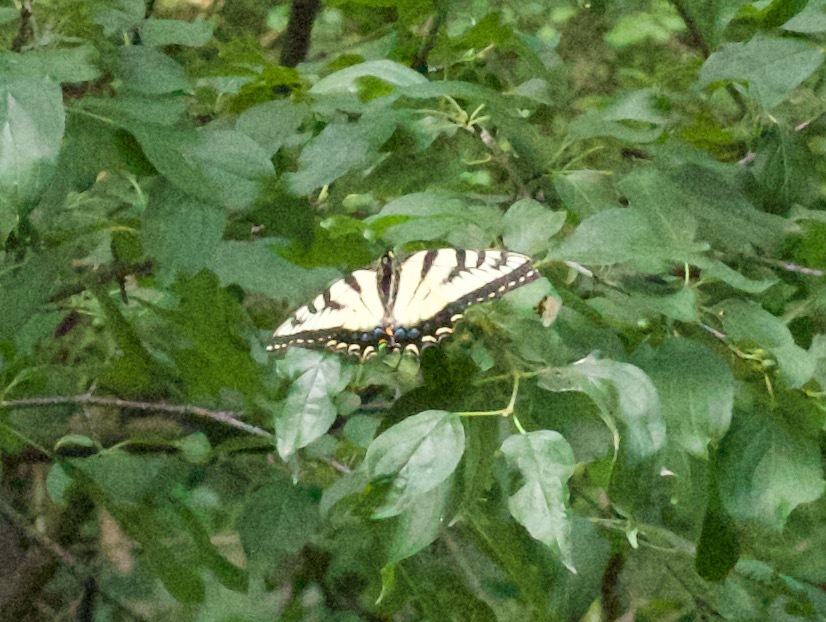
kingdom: Animalia
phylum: Arthropoda
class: Insecta
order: Lepidoptera
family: Papilionidae
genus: Pterourus
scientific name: Pterourus
